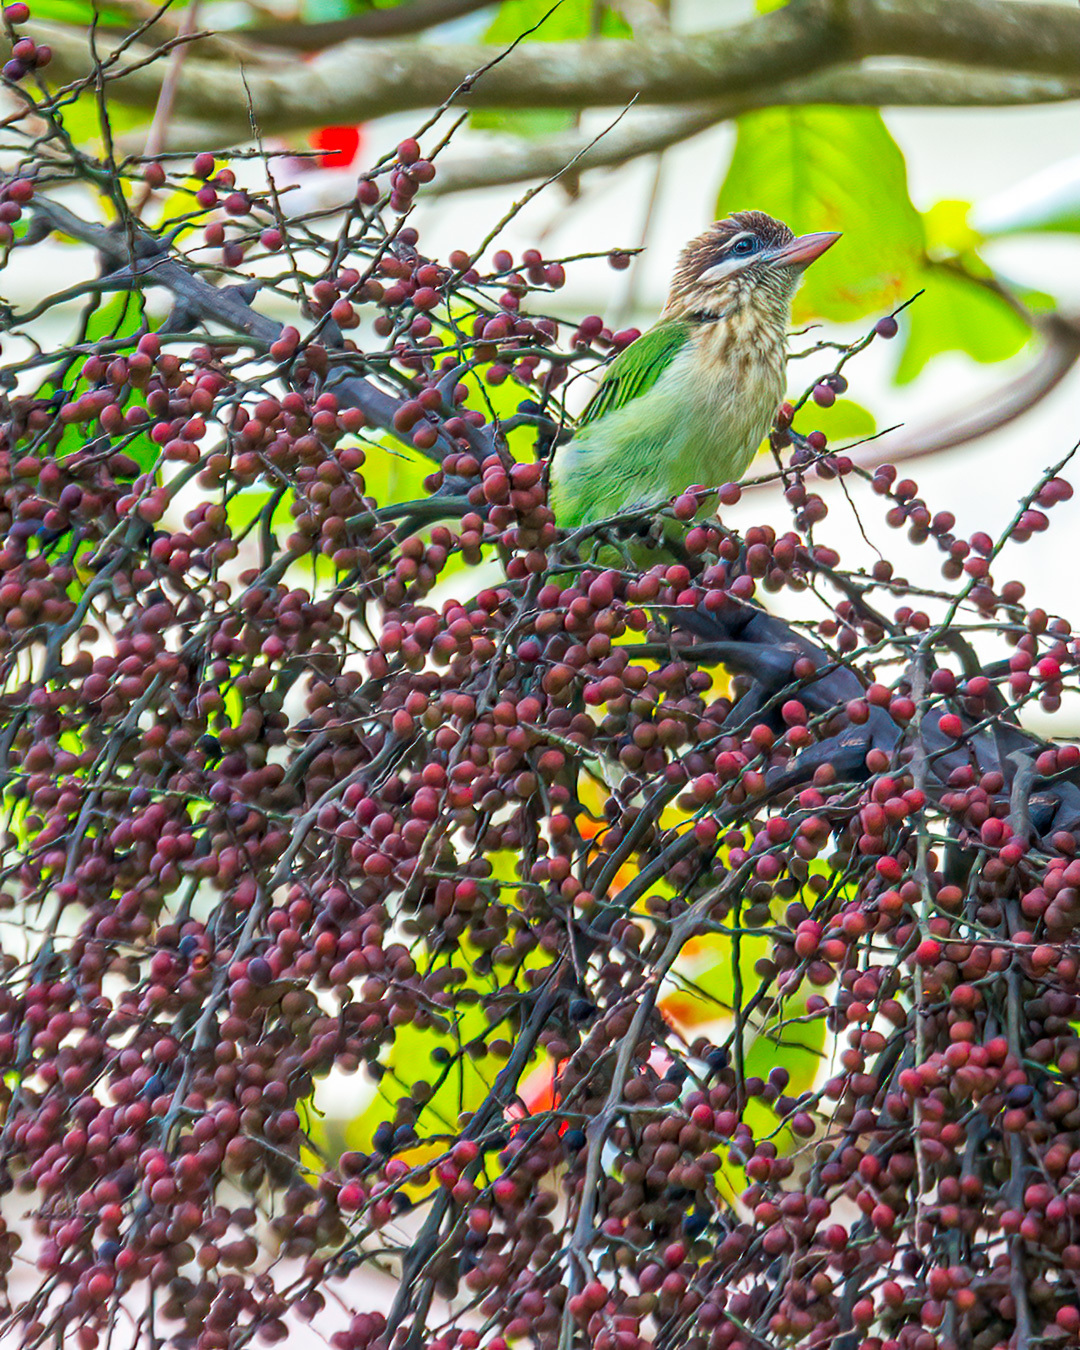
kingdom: Animalia
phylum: Chordata
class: Aves
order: Piciformes
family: Megalaimidae
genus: Psilopogon
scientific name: Psilopogon viridis
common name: White-cheeked barbet
